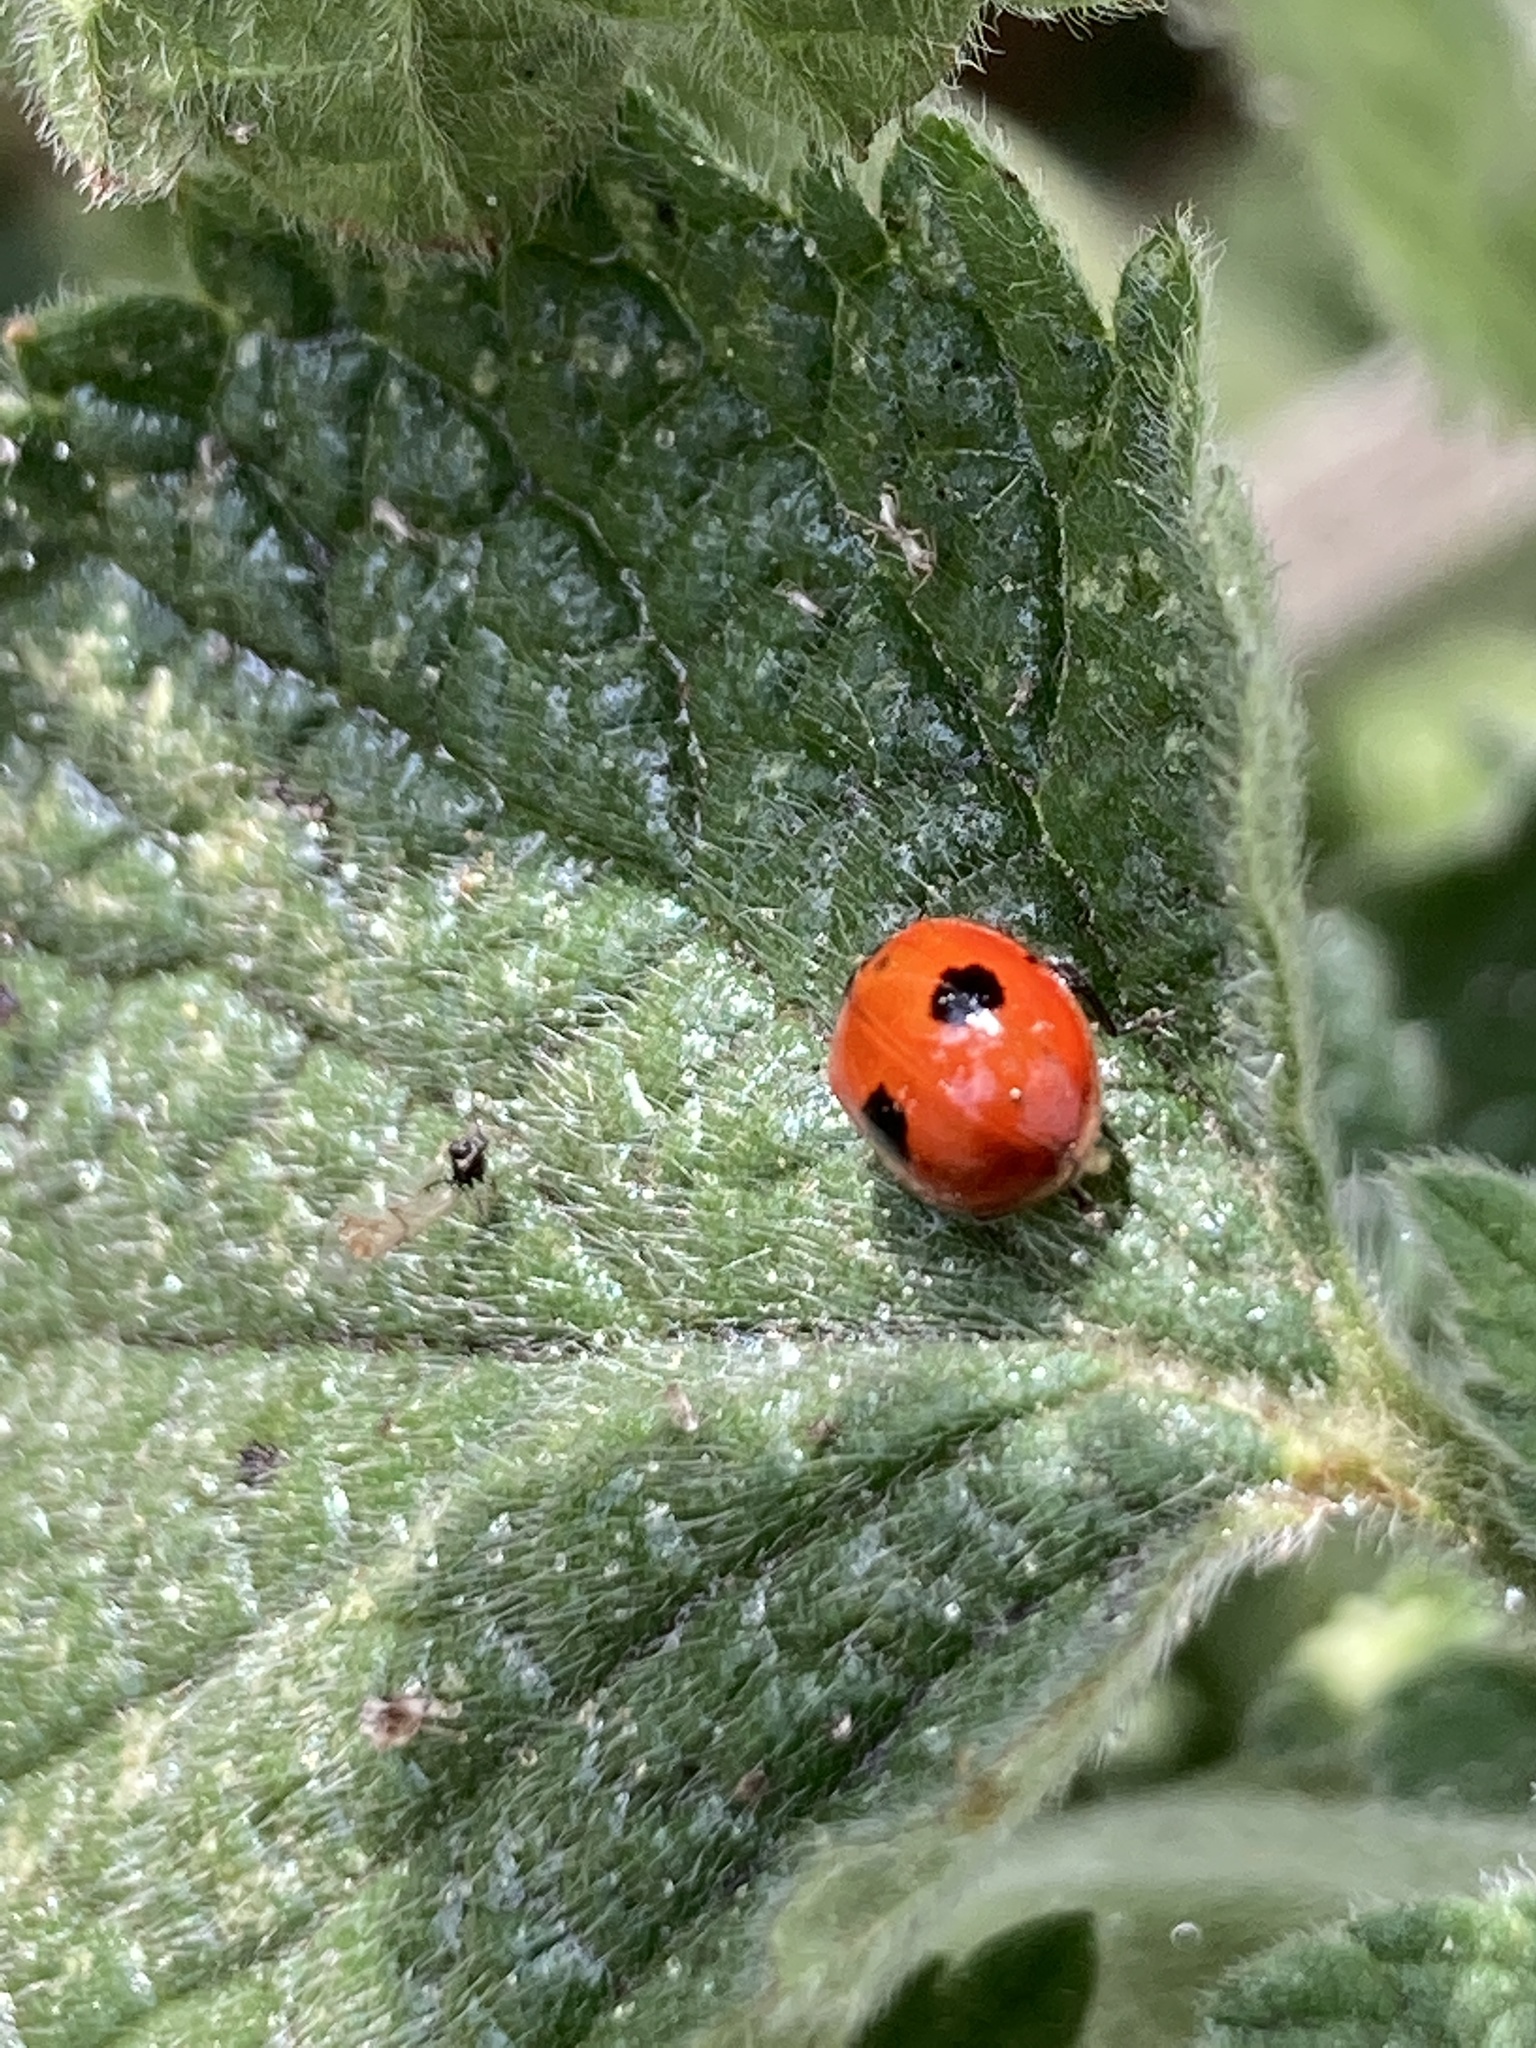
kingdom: Animalia
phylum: Arthropoda
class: Insecta
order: Coleoptera
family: Coccinellidae
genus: Adalia
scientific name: Adalia bipunctata
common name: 2-spot ladybird
